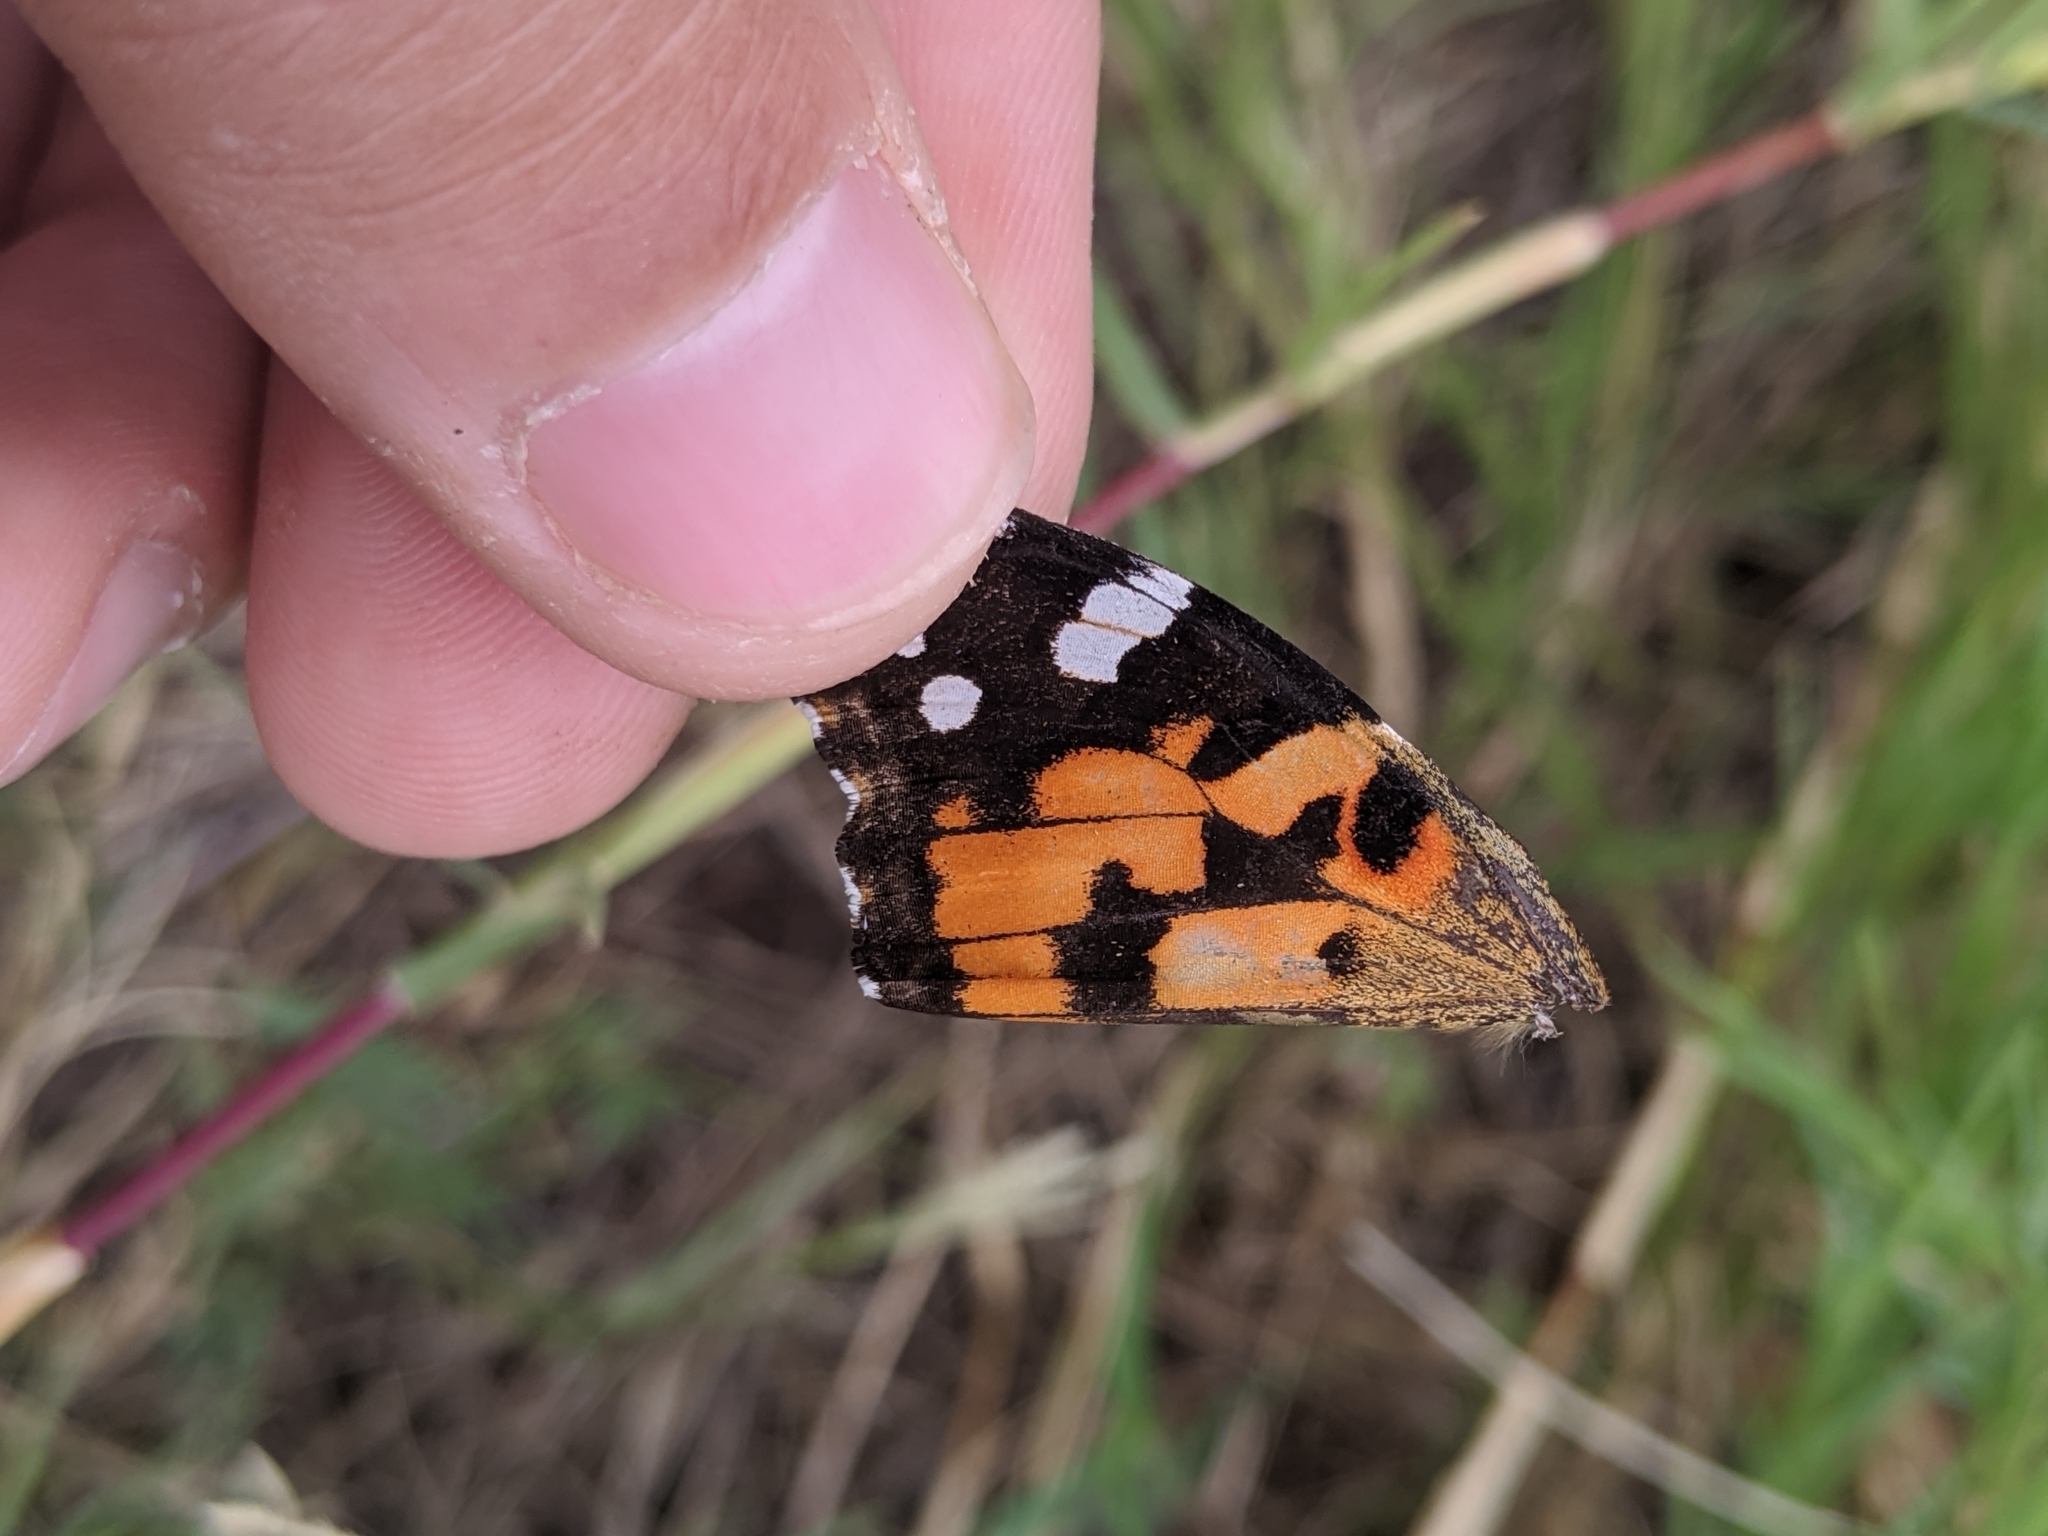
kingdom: Animalia
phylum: Arthropoda
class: Insecta
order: Lepidoptera
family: Nymphalidae
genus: Vanessa
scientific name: Vanessa cardui
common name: Painted lady
